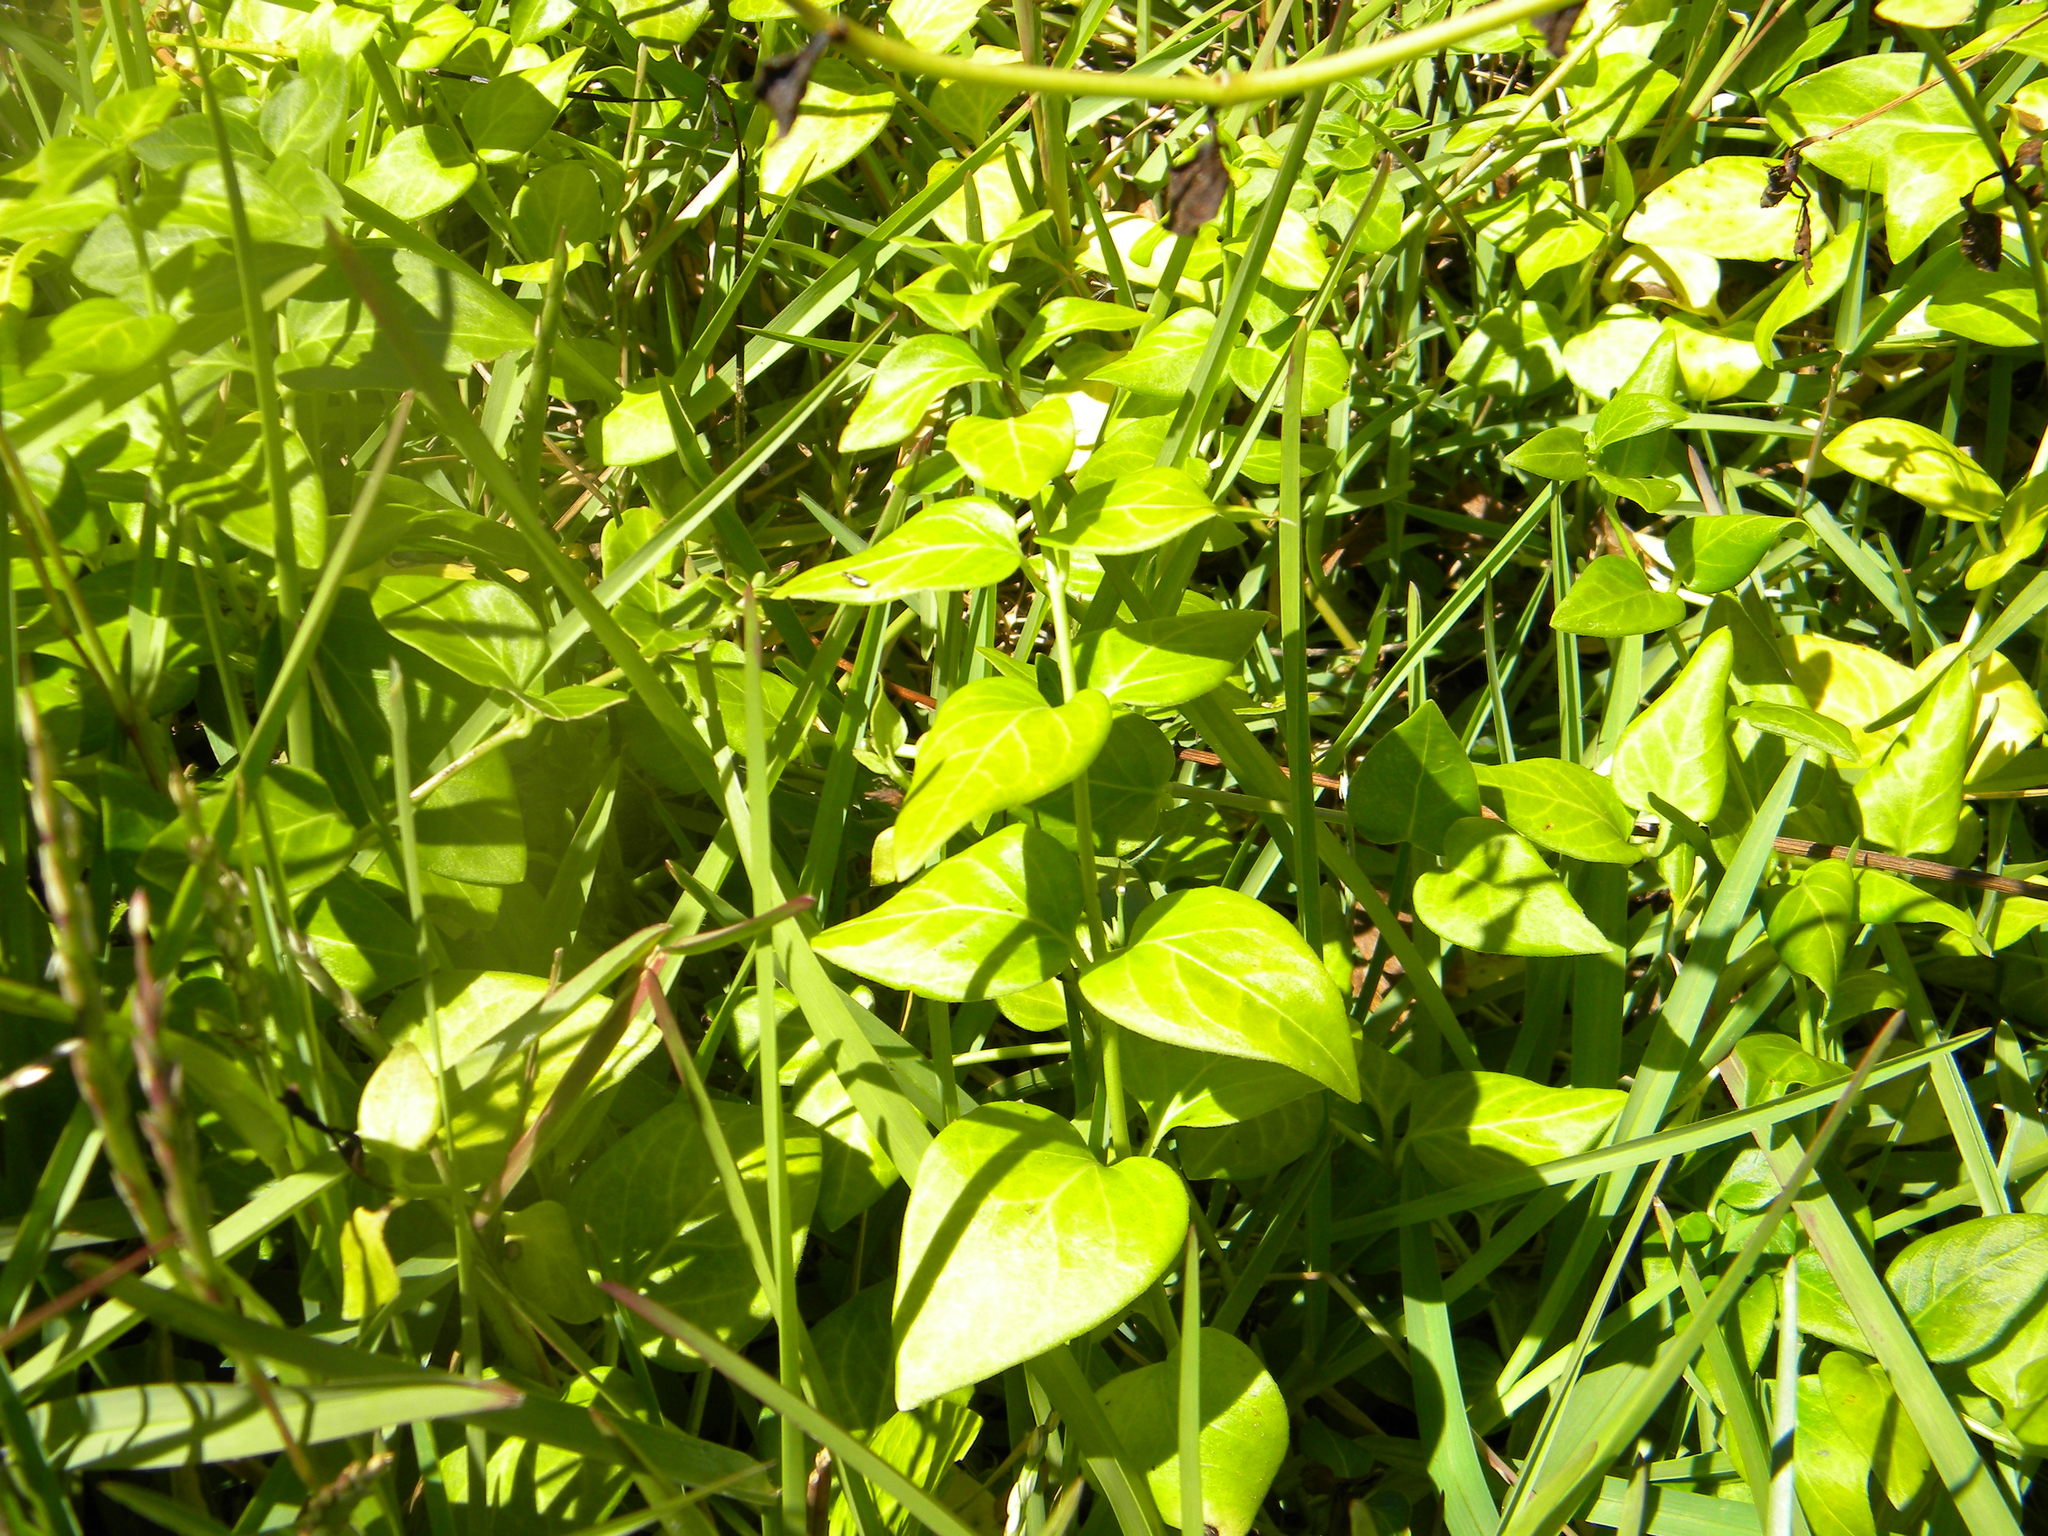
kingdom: Plantae
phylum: Tracheophyta
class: Magnoliopsida
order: Gentianales
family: Apocynaceae
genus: Vinca
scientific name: Vinca major
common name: Greater periwinkle
